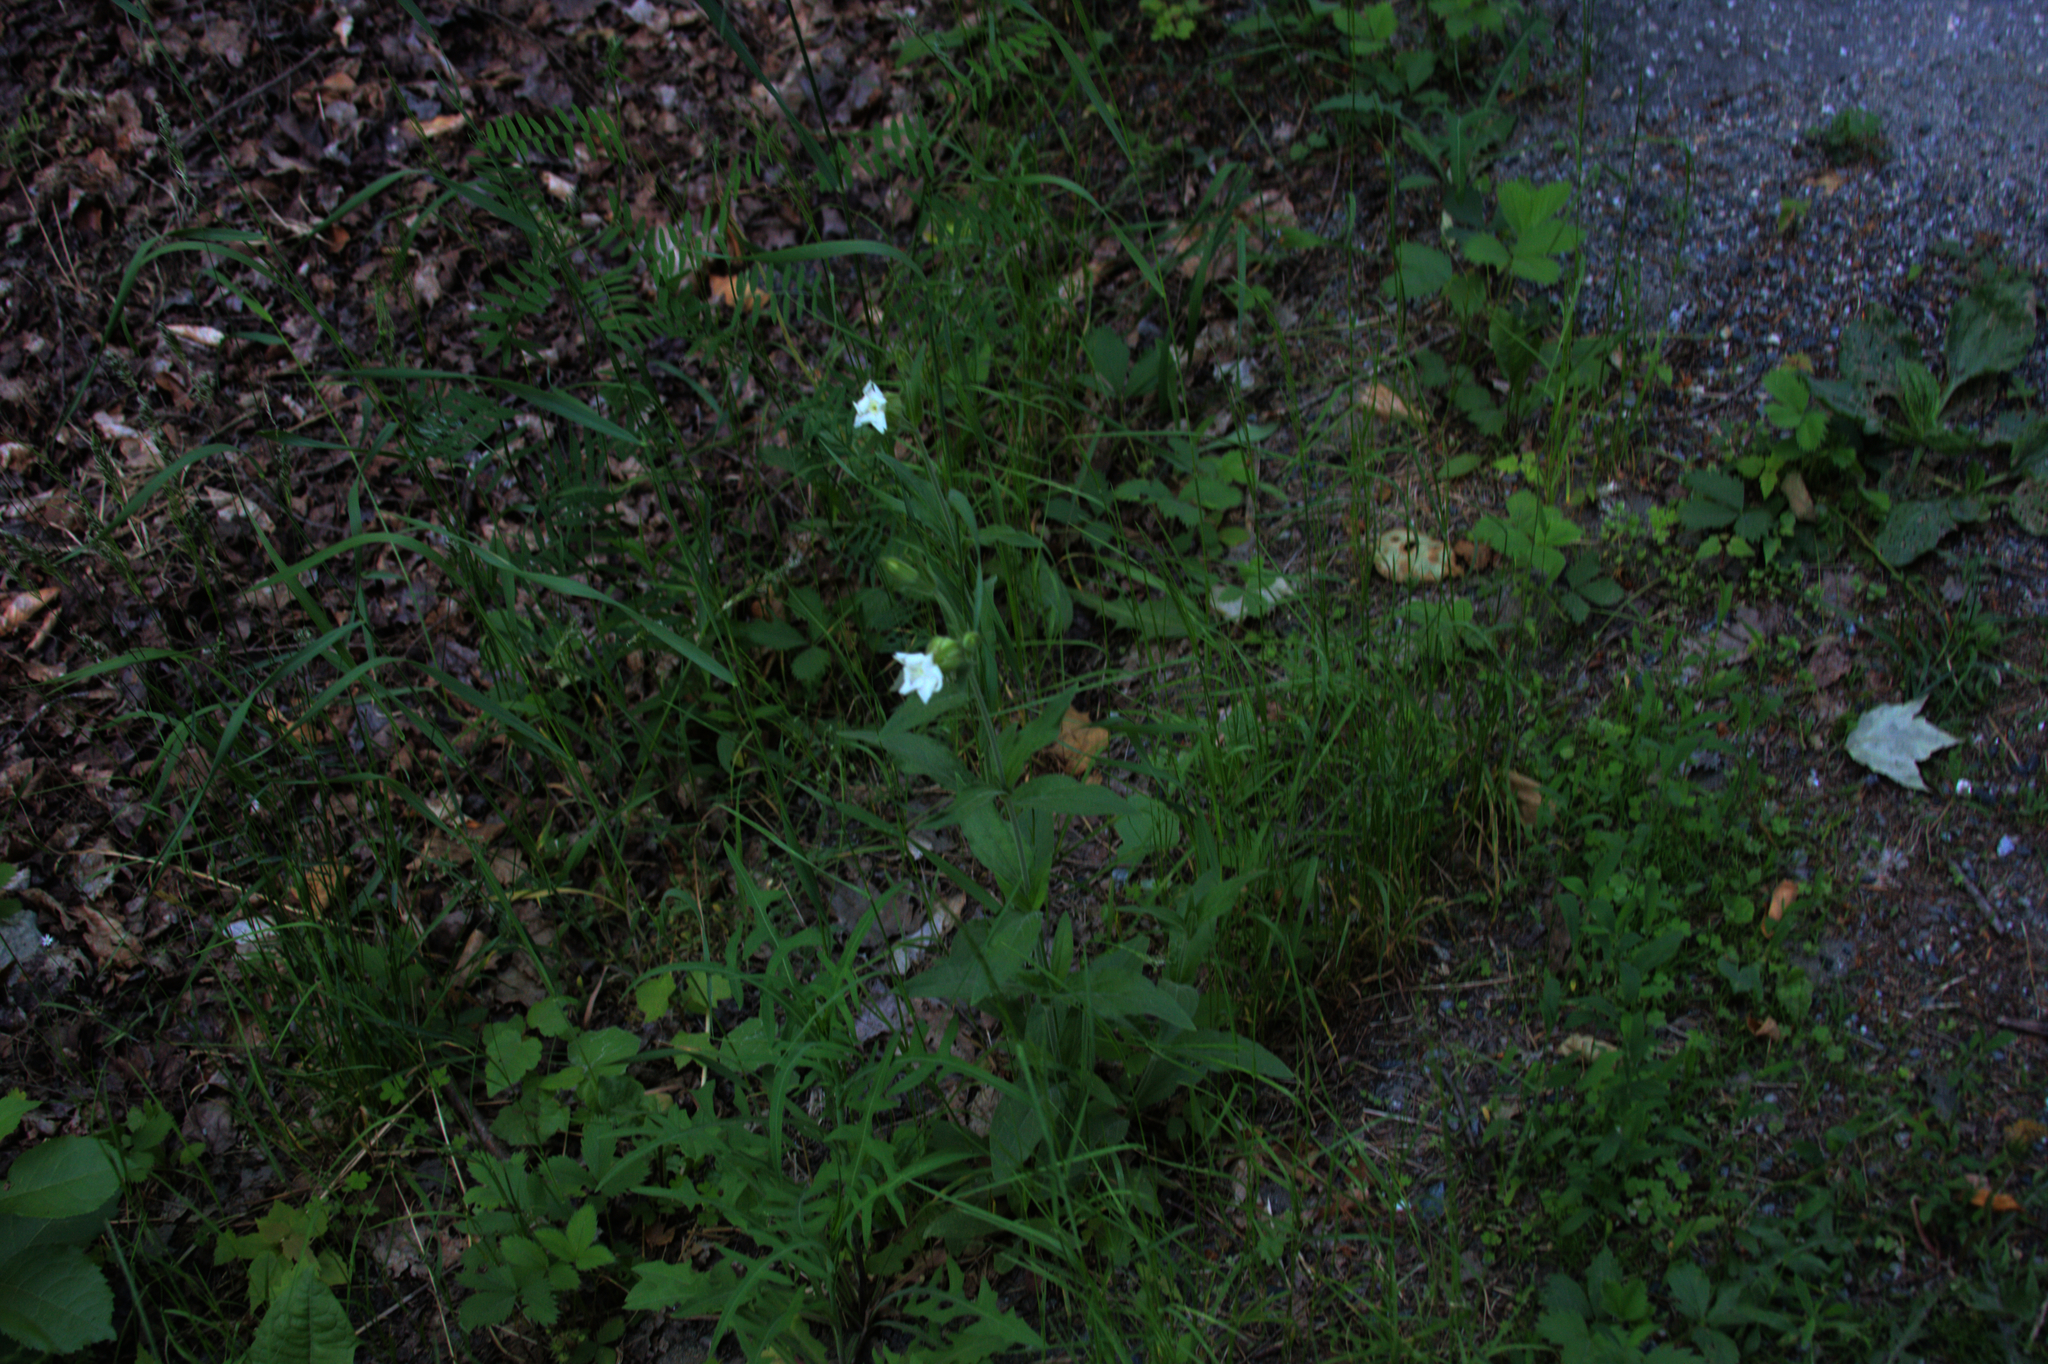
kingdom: Plantae
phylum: Tracheophyta
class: Magnoliopsida
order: Caryophyllales
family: Caryophyllaceae
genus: Silene
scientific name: Silene latifolia
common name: White campion
